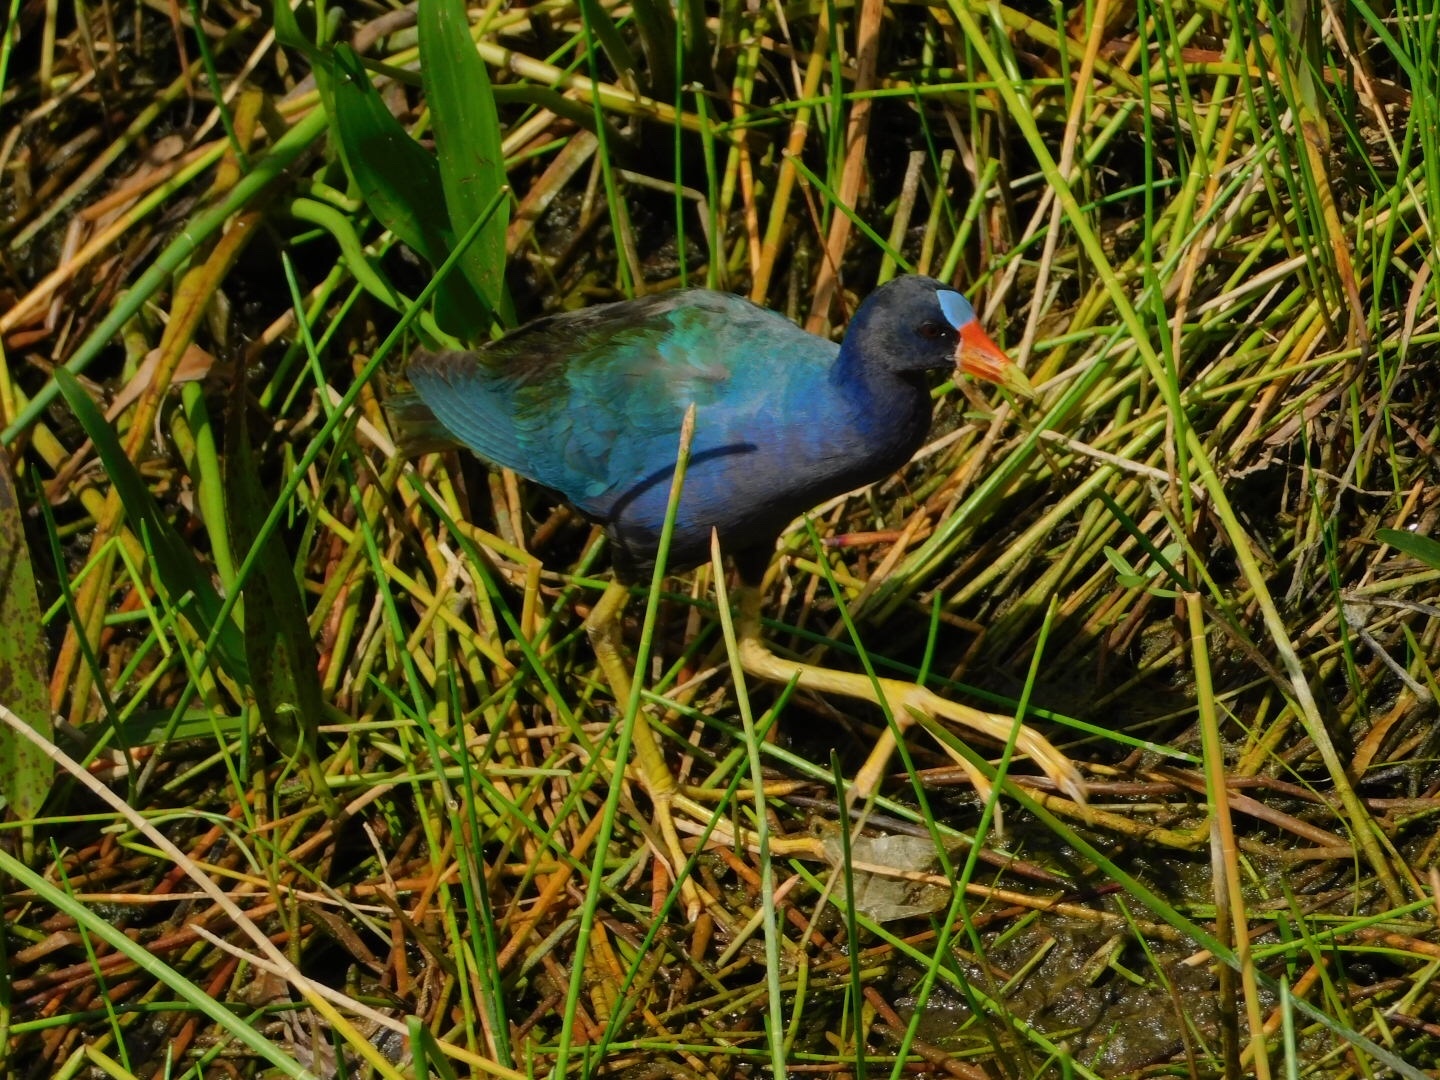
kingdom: Animalia
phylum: Chordata
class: Aves
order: Gruiformes
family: Rallidae
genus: Porphyrio
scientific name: Porphyrio martinica
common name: Purple gallinule
